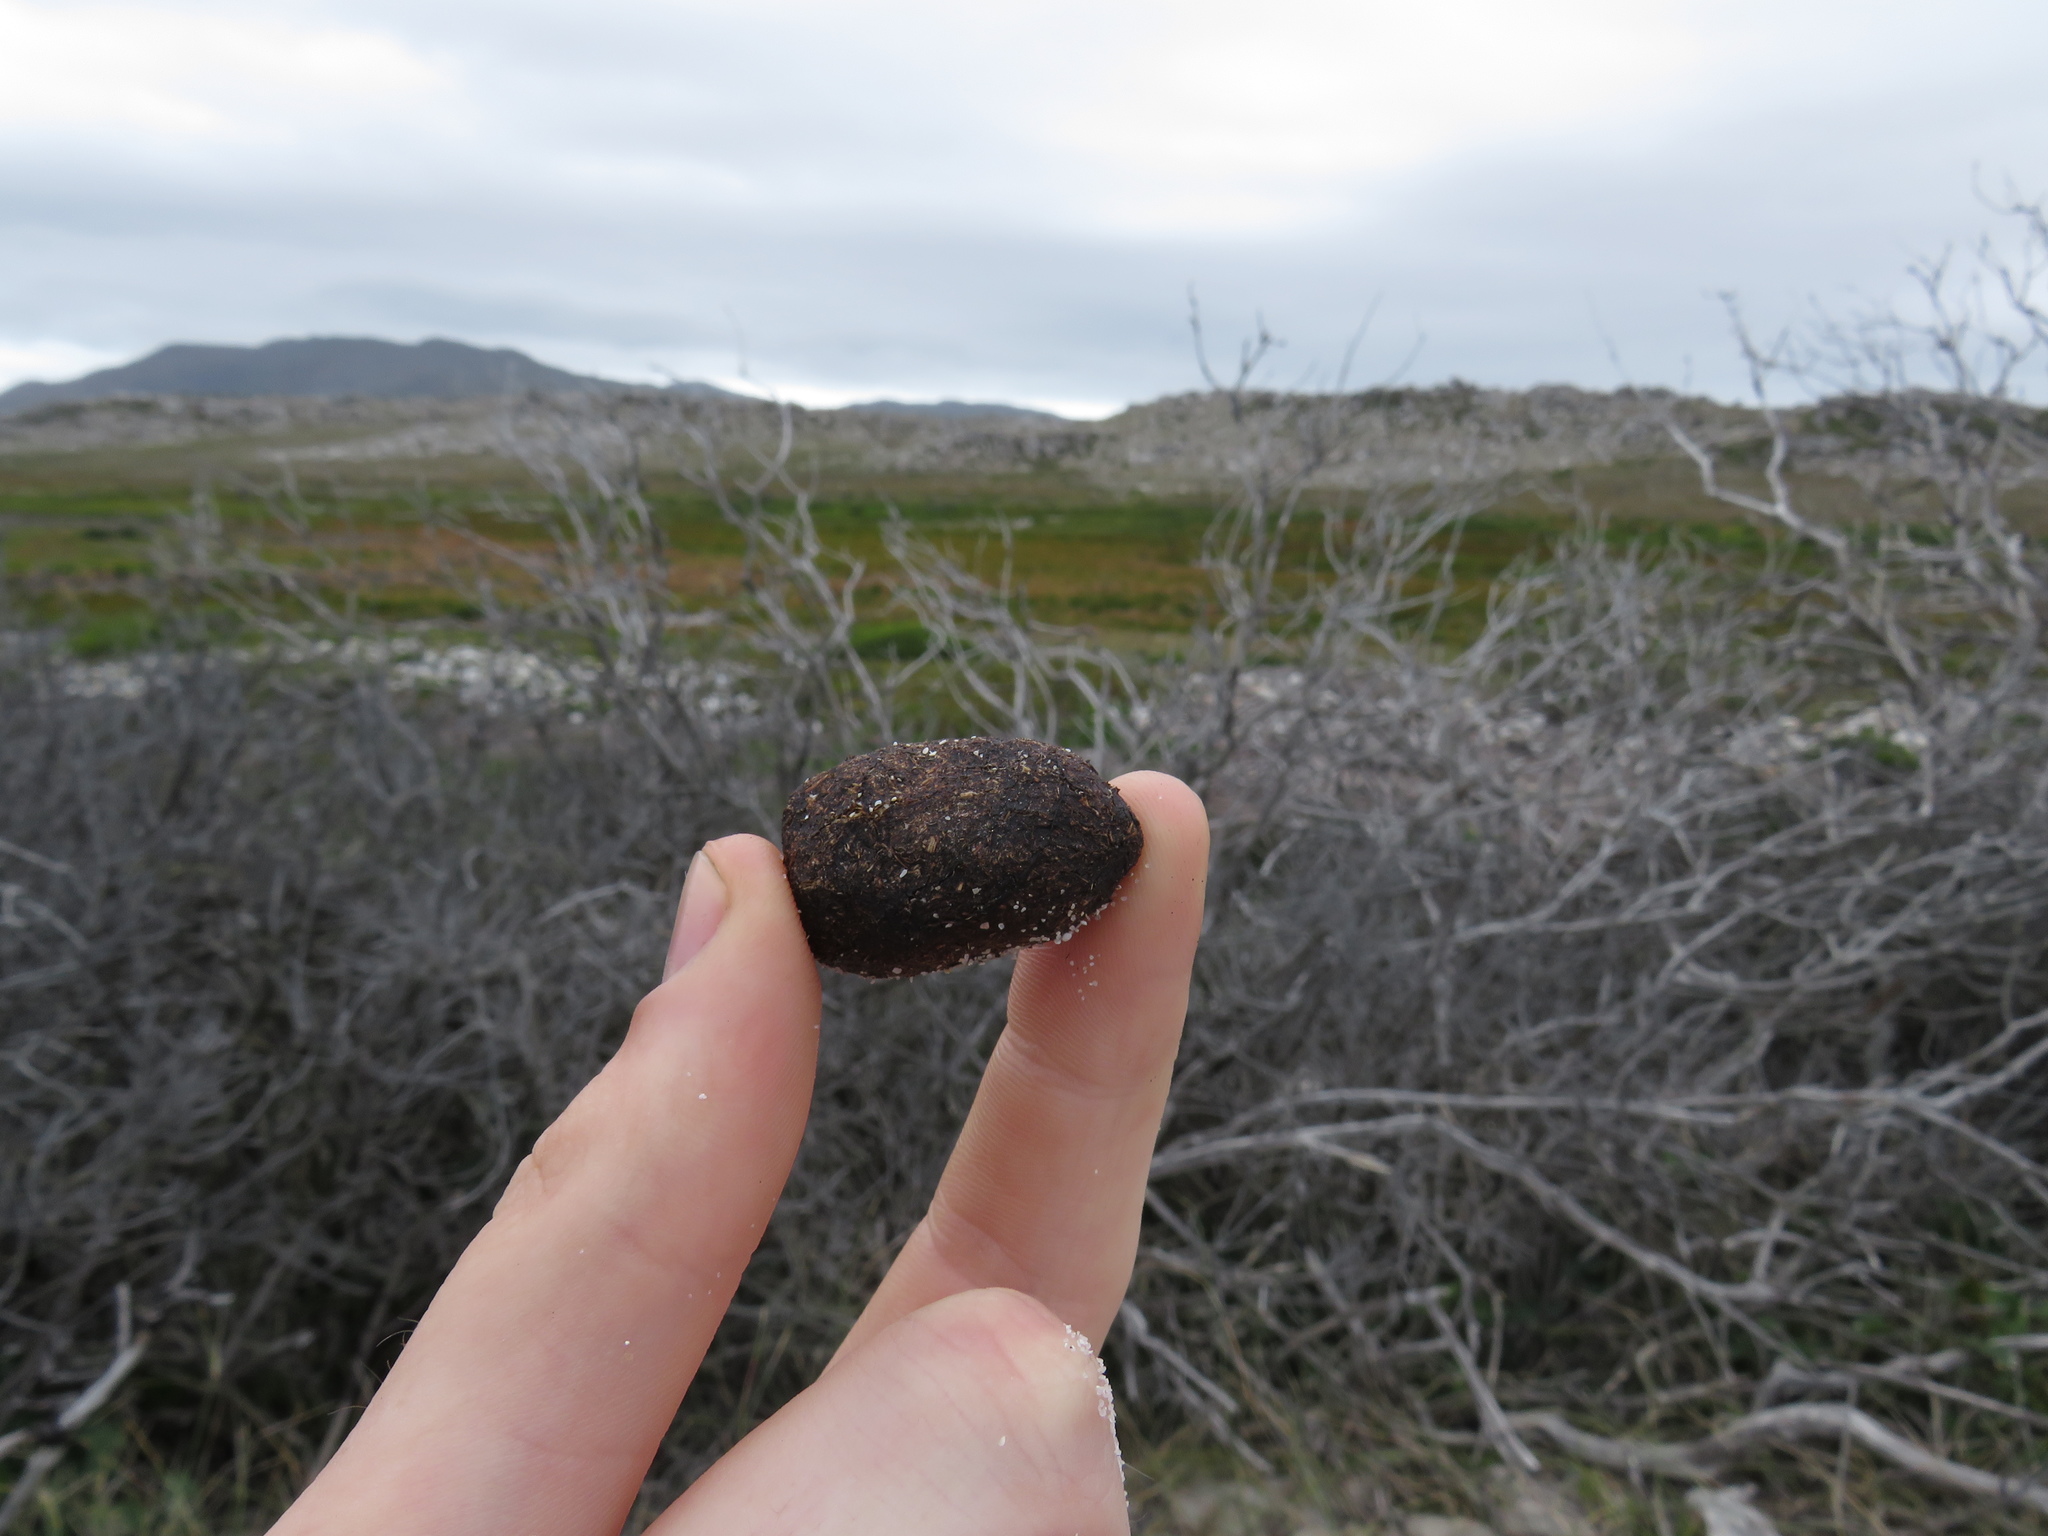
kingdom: Animalia
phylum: Chordata
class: Mammalia
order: Artiodactyla
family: Bovidae
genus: Taurotragus
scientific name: Taurotragus oryx
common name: Common eland
